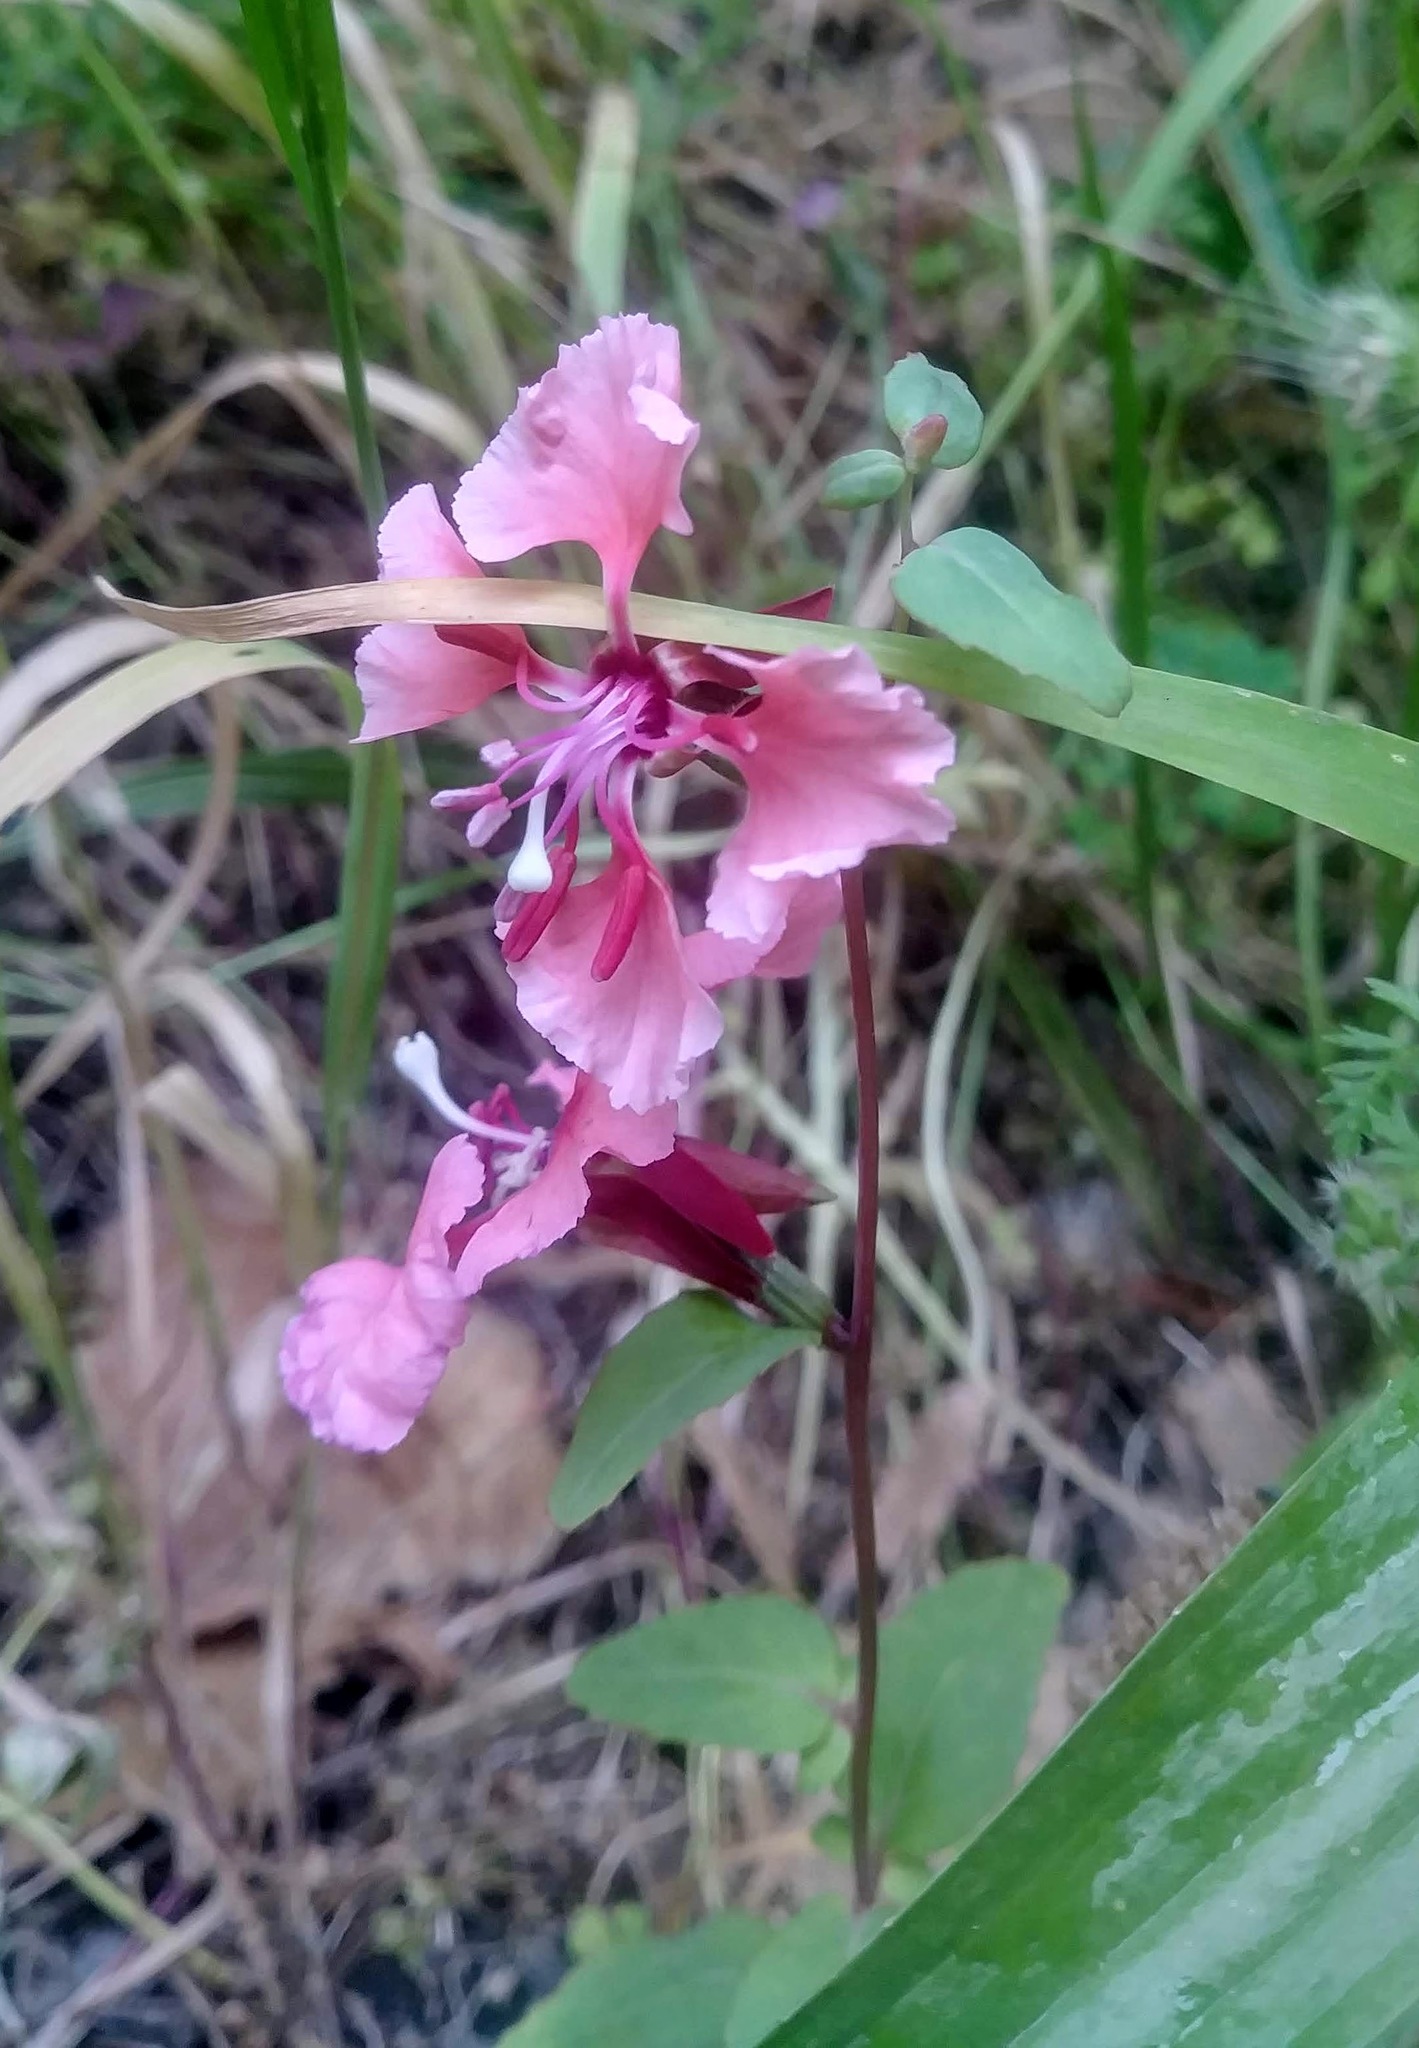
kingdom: Plantae
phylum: Tracheophyta
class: Magnoliopsida
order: Myrtales
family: Onagraceae
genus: Clarkia
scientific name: Clarkia unguiculata
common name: Clarkia
